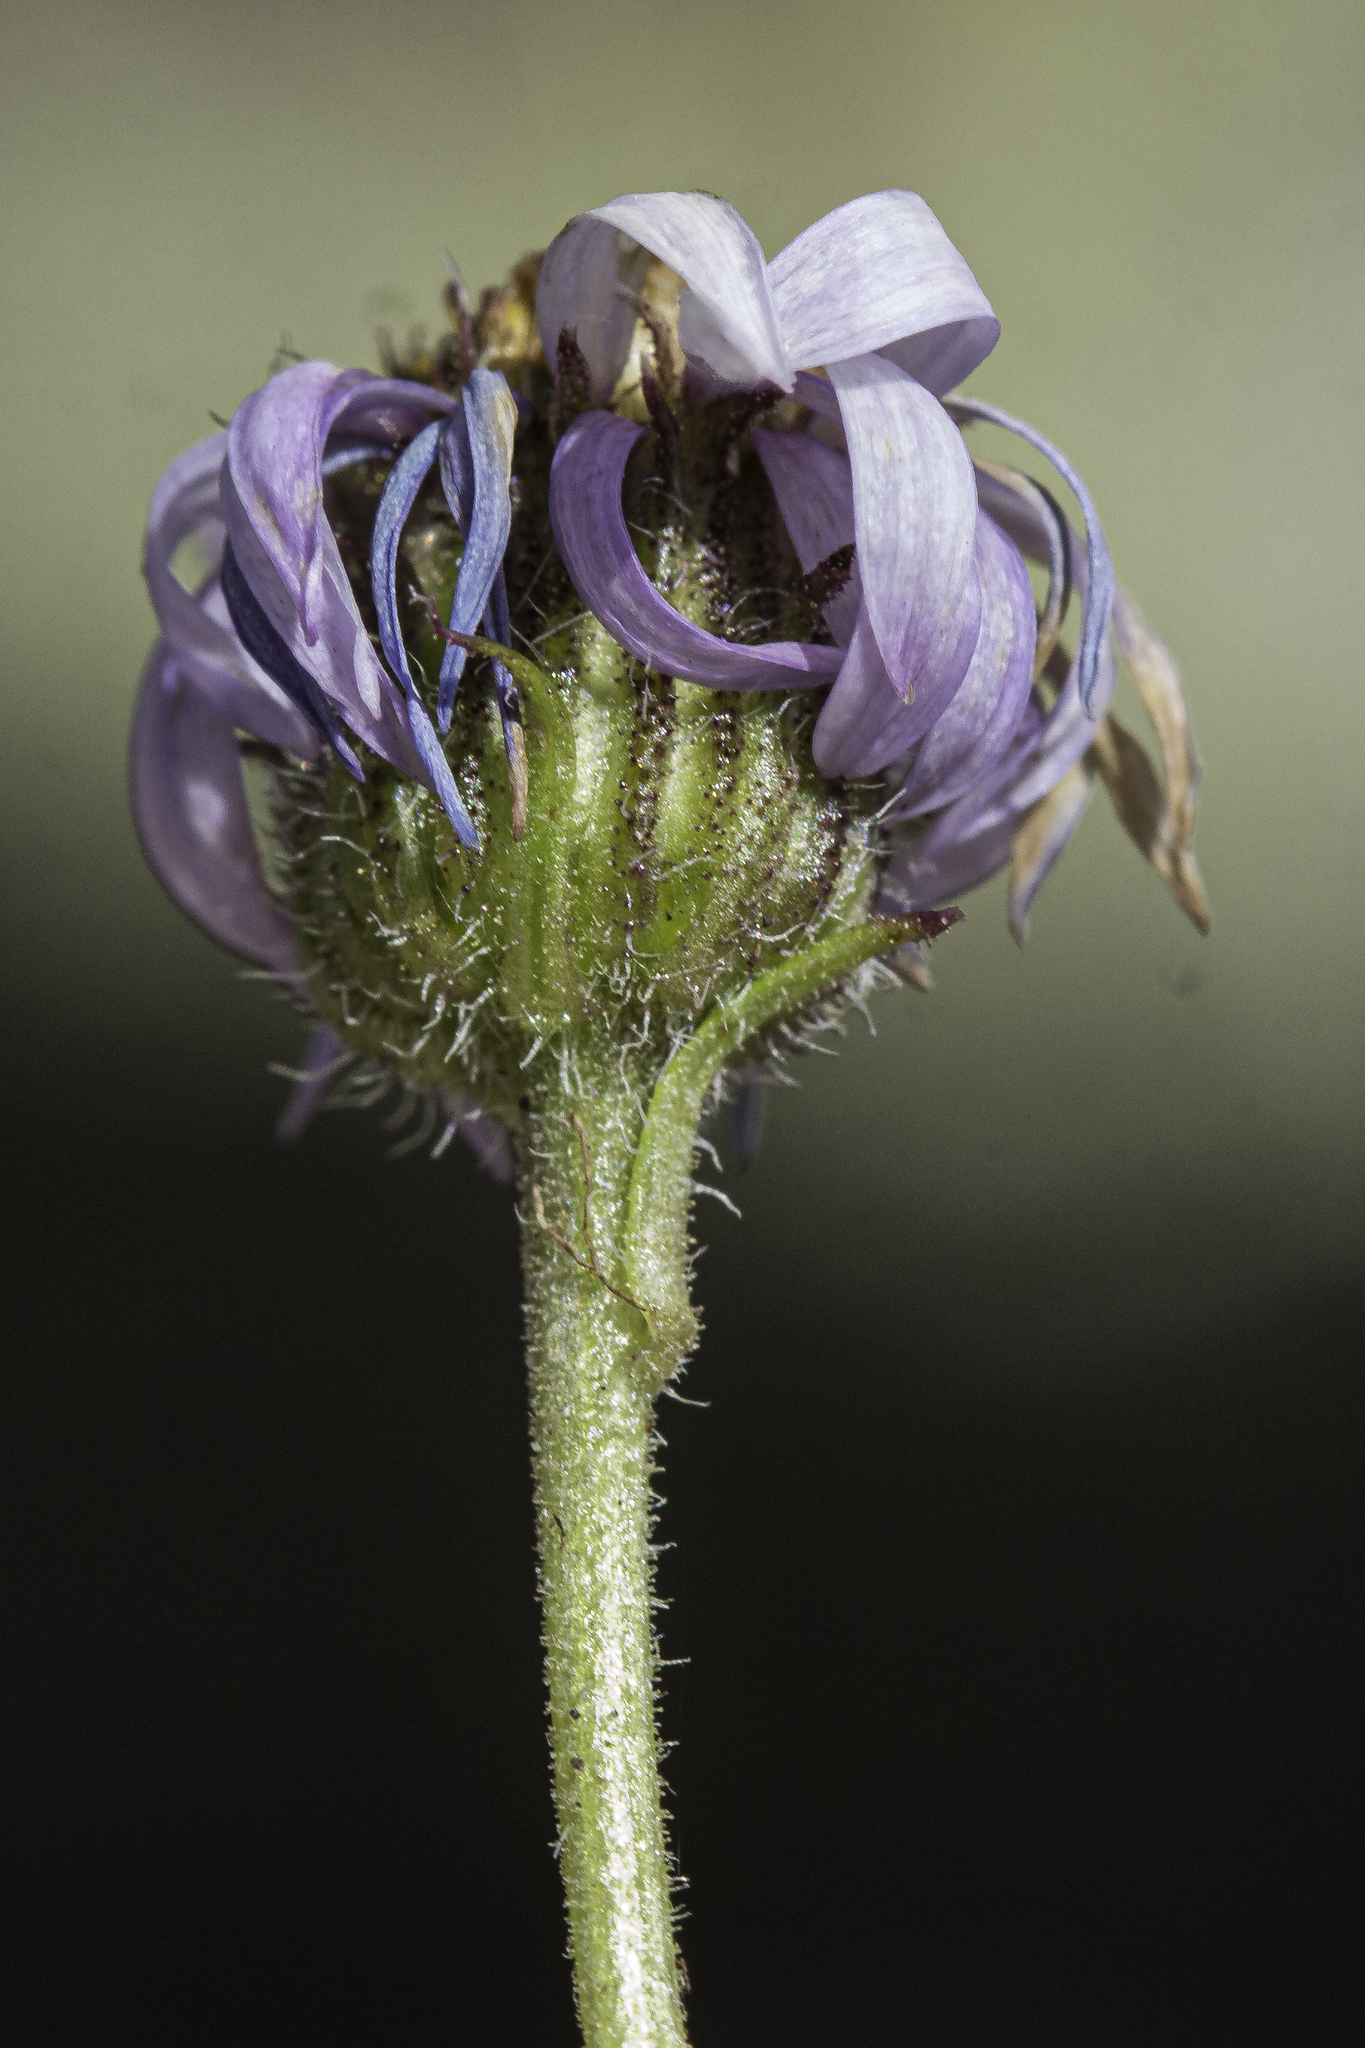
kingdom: Plantae
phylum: Tracheophyta
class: Magnoliopsida
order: Asterales
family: Asteraceae
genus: Erigeron
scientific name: Erigeron pinnatisectus
